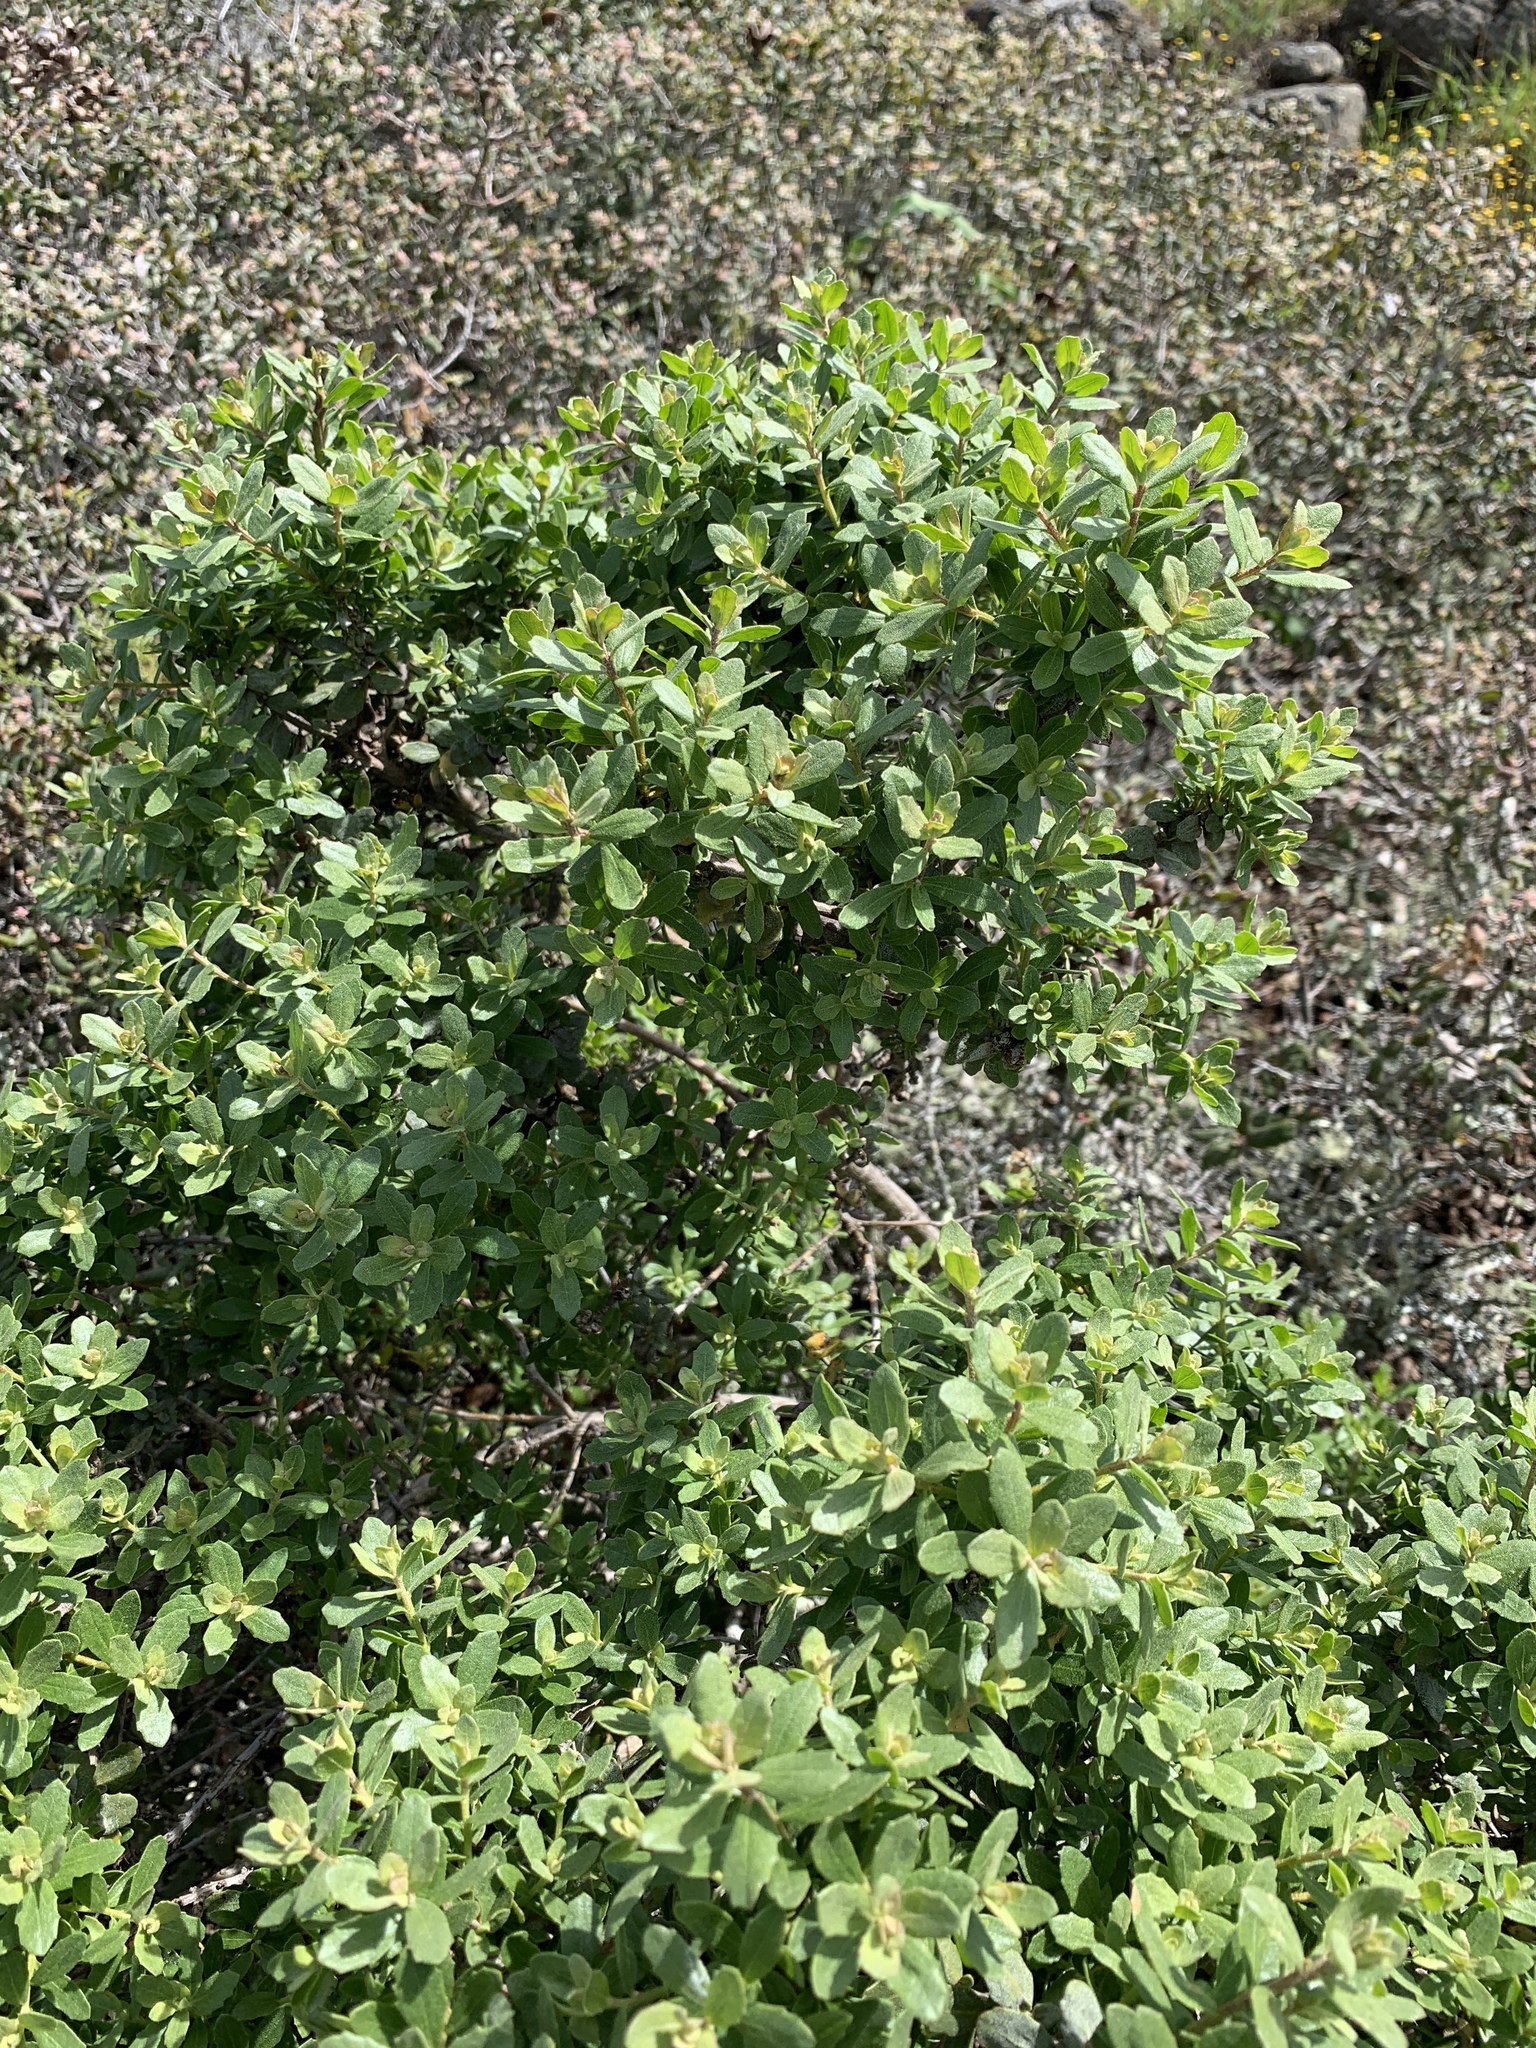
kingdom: Plantae
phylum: Tracheophyta
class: Magnoliopsida
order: Asterales
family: Asteraceae
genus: Baccharis
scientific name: Baccharis pilularis
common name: Coyotebrush
